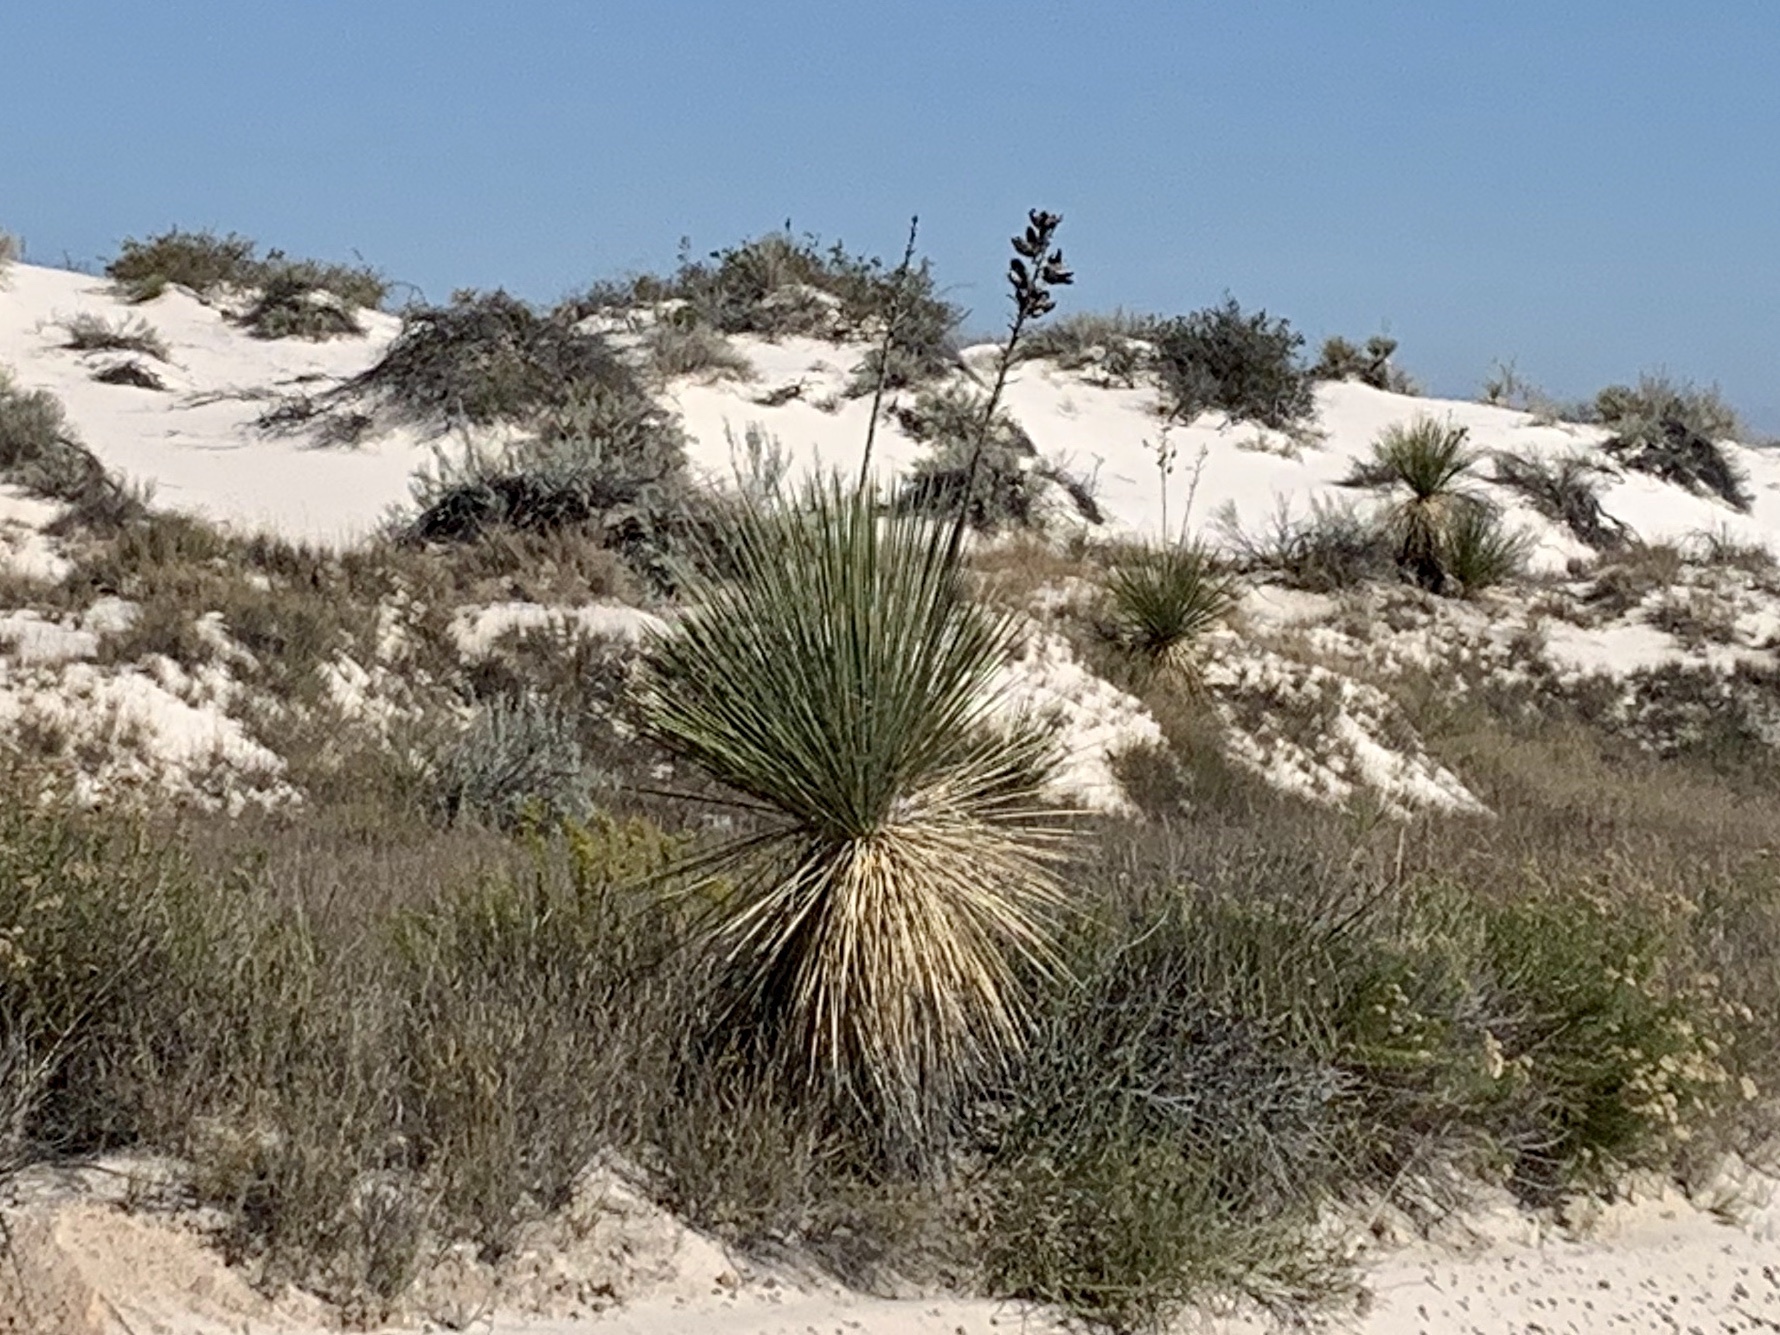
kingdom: Plantae
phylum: Tracheophyta
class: Liliopsida
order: Asparagales
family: Asparagaceae
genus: Yucca
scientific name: Yucca elata
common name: Palmella
